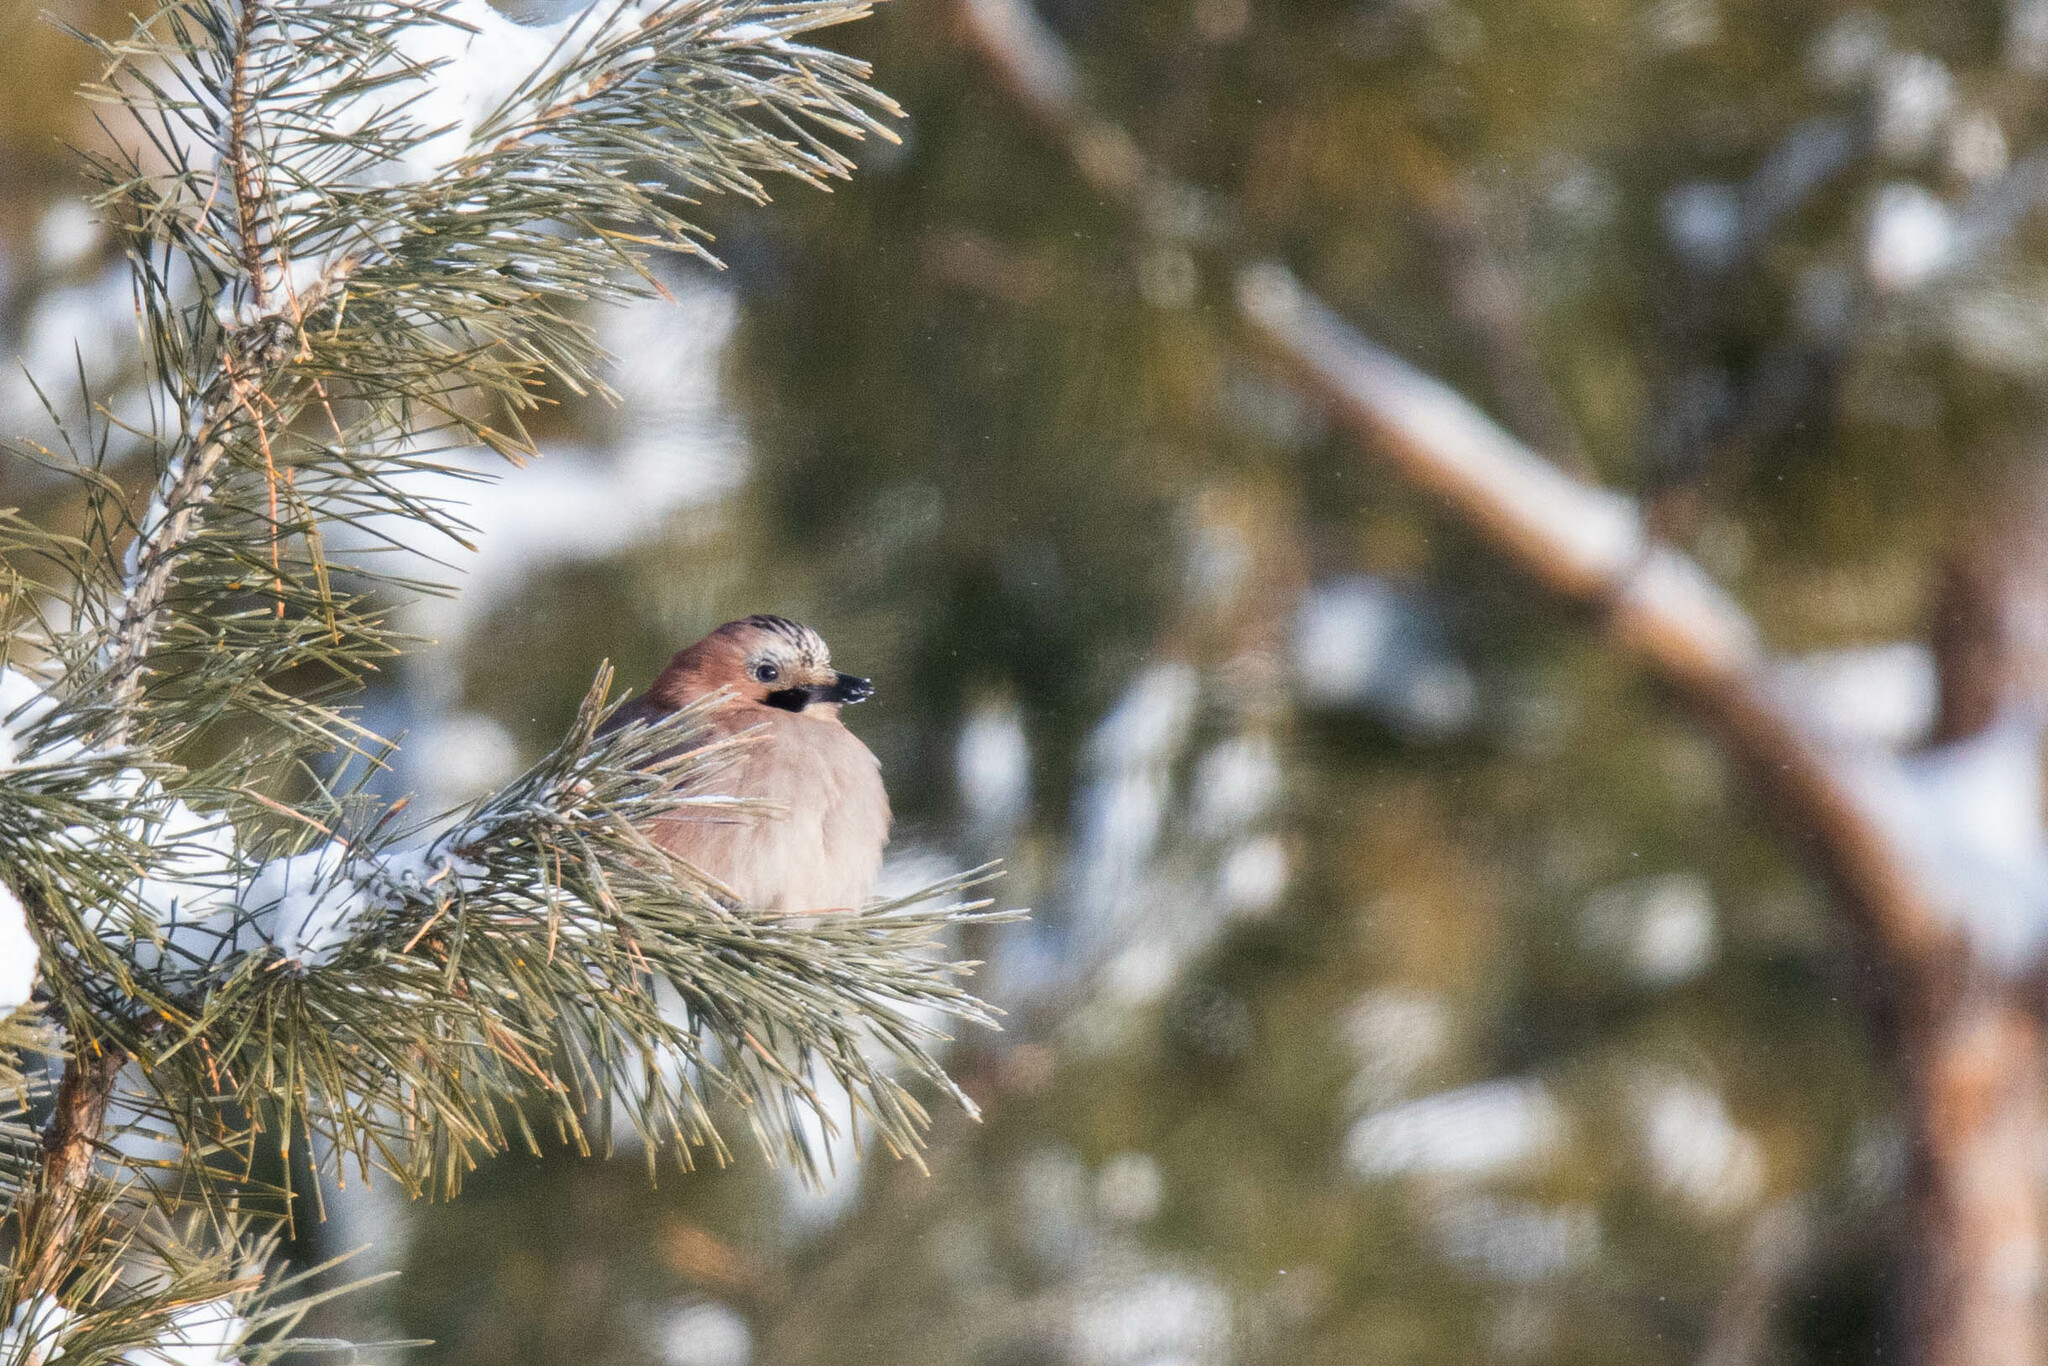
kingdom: Animalia
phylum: Chordata
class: Aves
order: Passeriformes
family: Corvidae
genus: Garrulus
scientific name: Garrulus glandarius
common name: Eurasian jay
